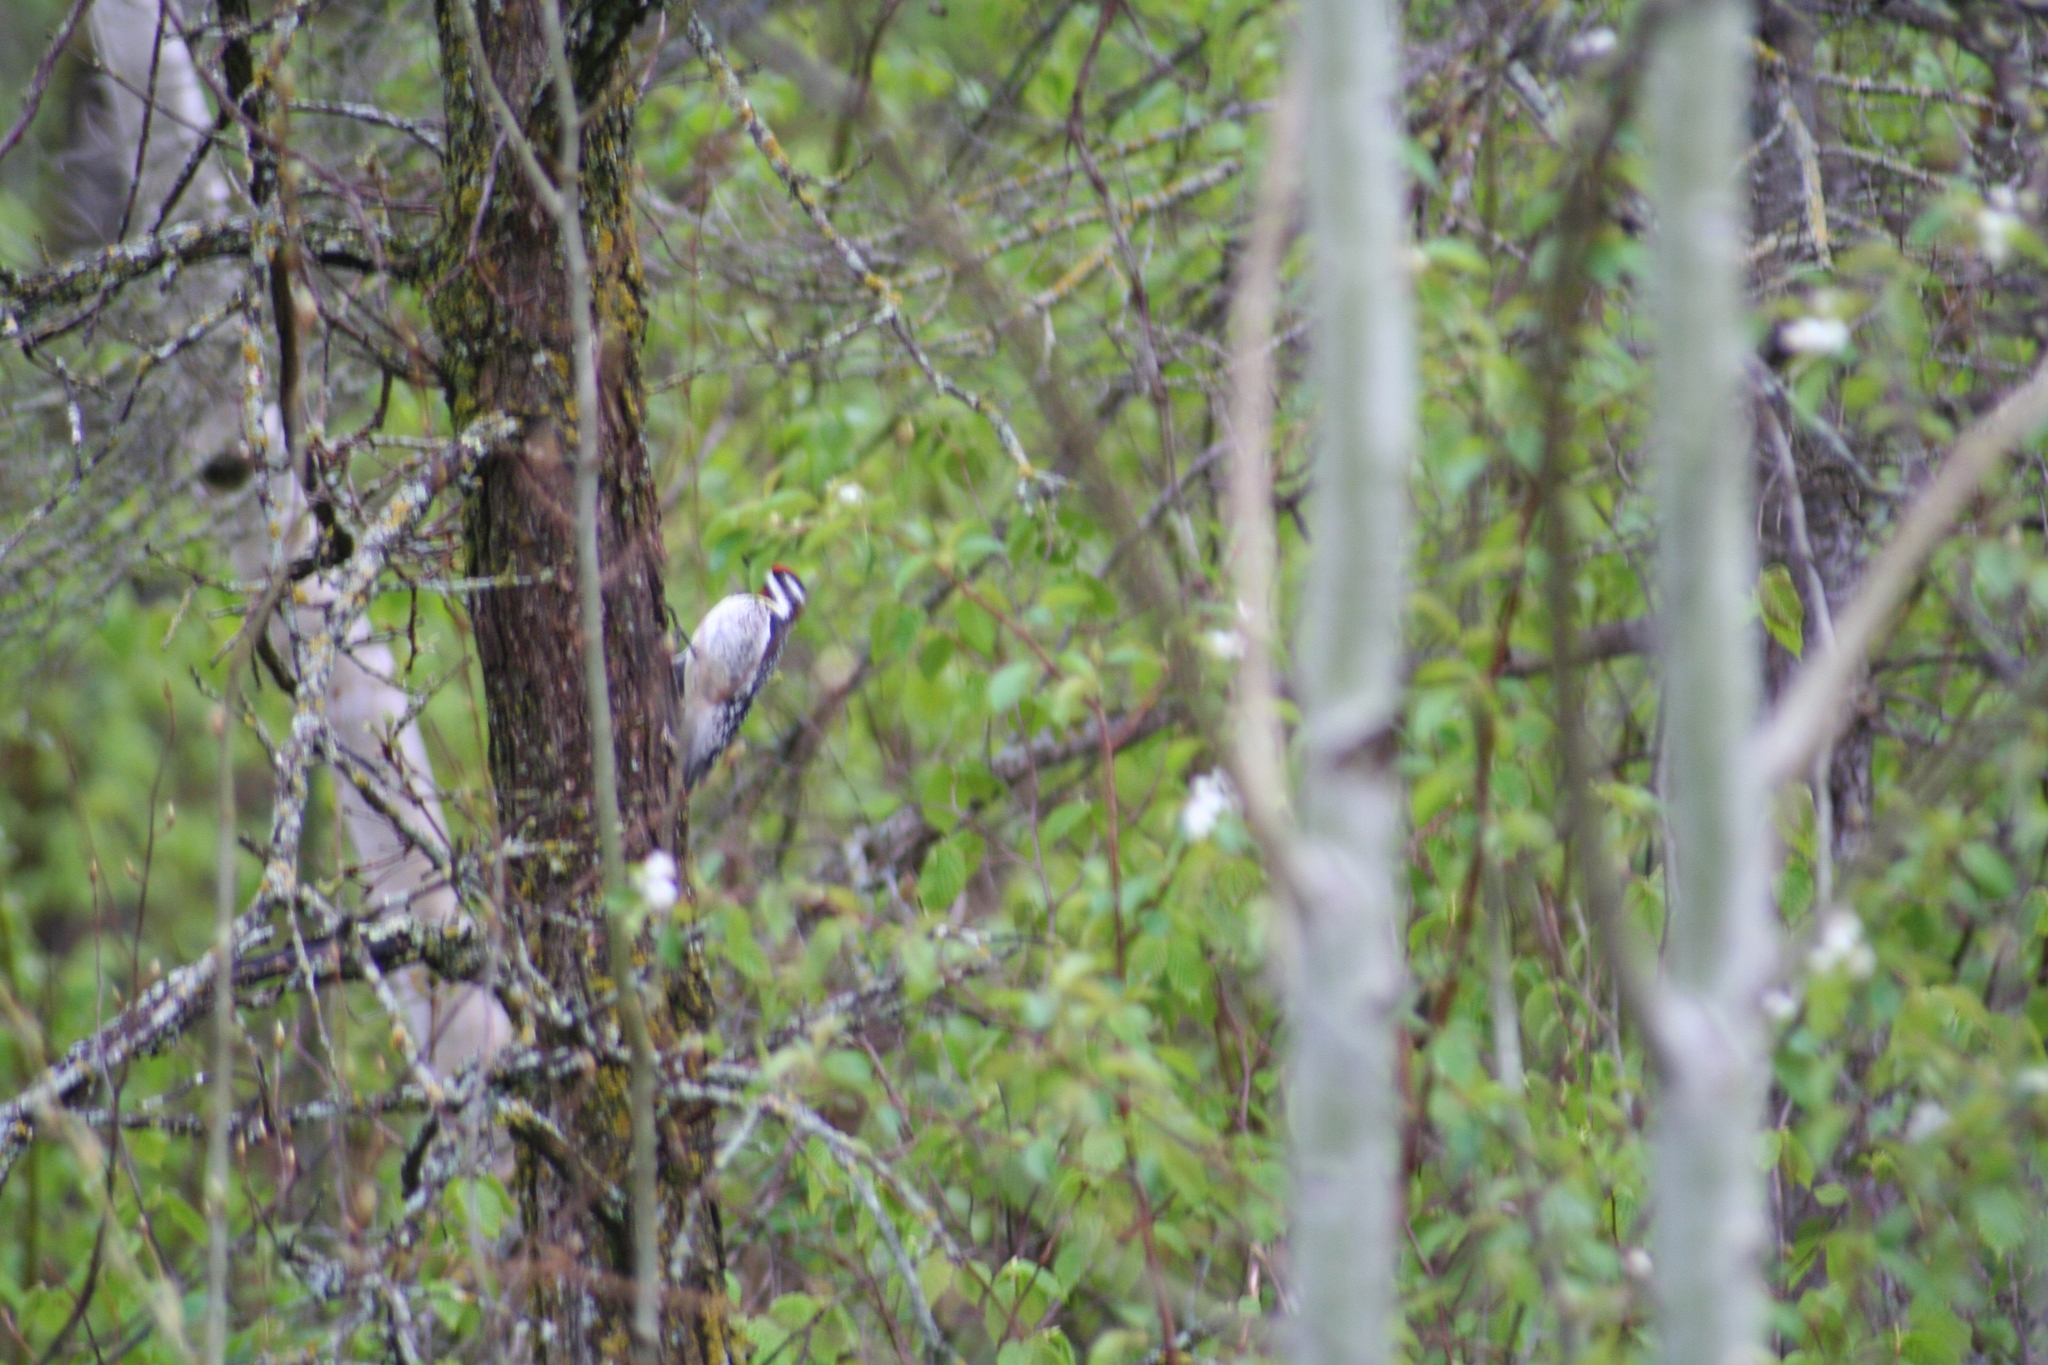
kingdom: Animalia
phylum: Chordata
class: Aves
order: Piciformes
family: Picidae
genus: Sphyrapicus
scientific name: Sphyrapicus varius
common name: Yellow-bellied sapsucker
